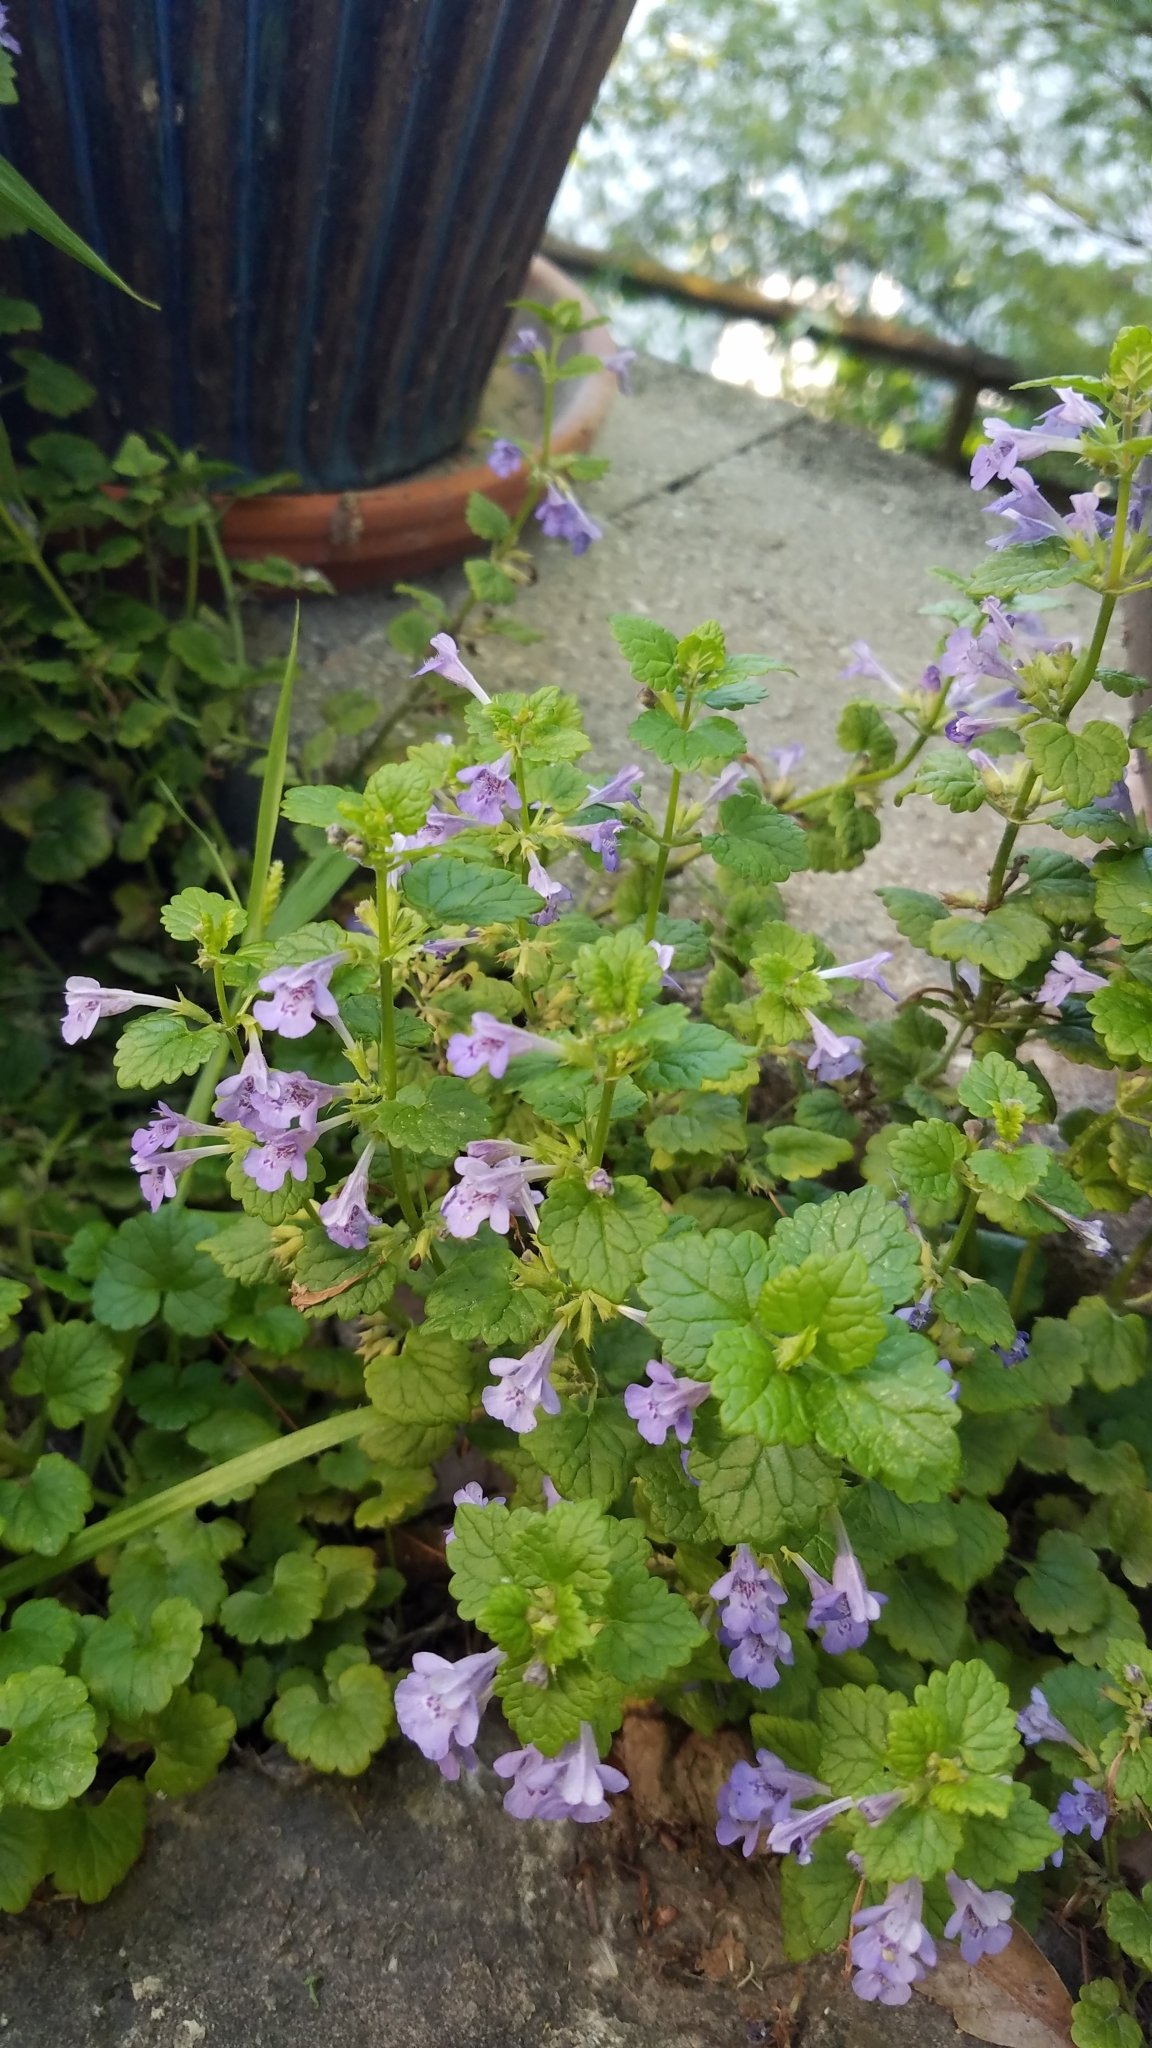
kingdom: Plantae
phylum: Tracheophyta
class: Magnoliopsida
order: Lamiales
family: Lamiaceae
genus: Glechoma
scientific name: Glechoma hederacea
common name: Ground ivy
